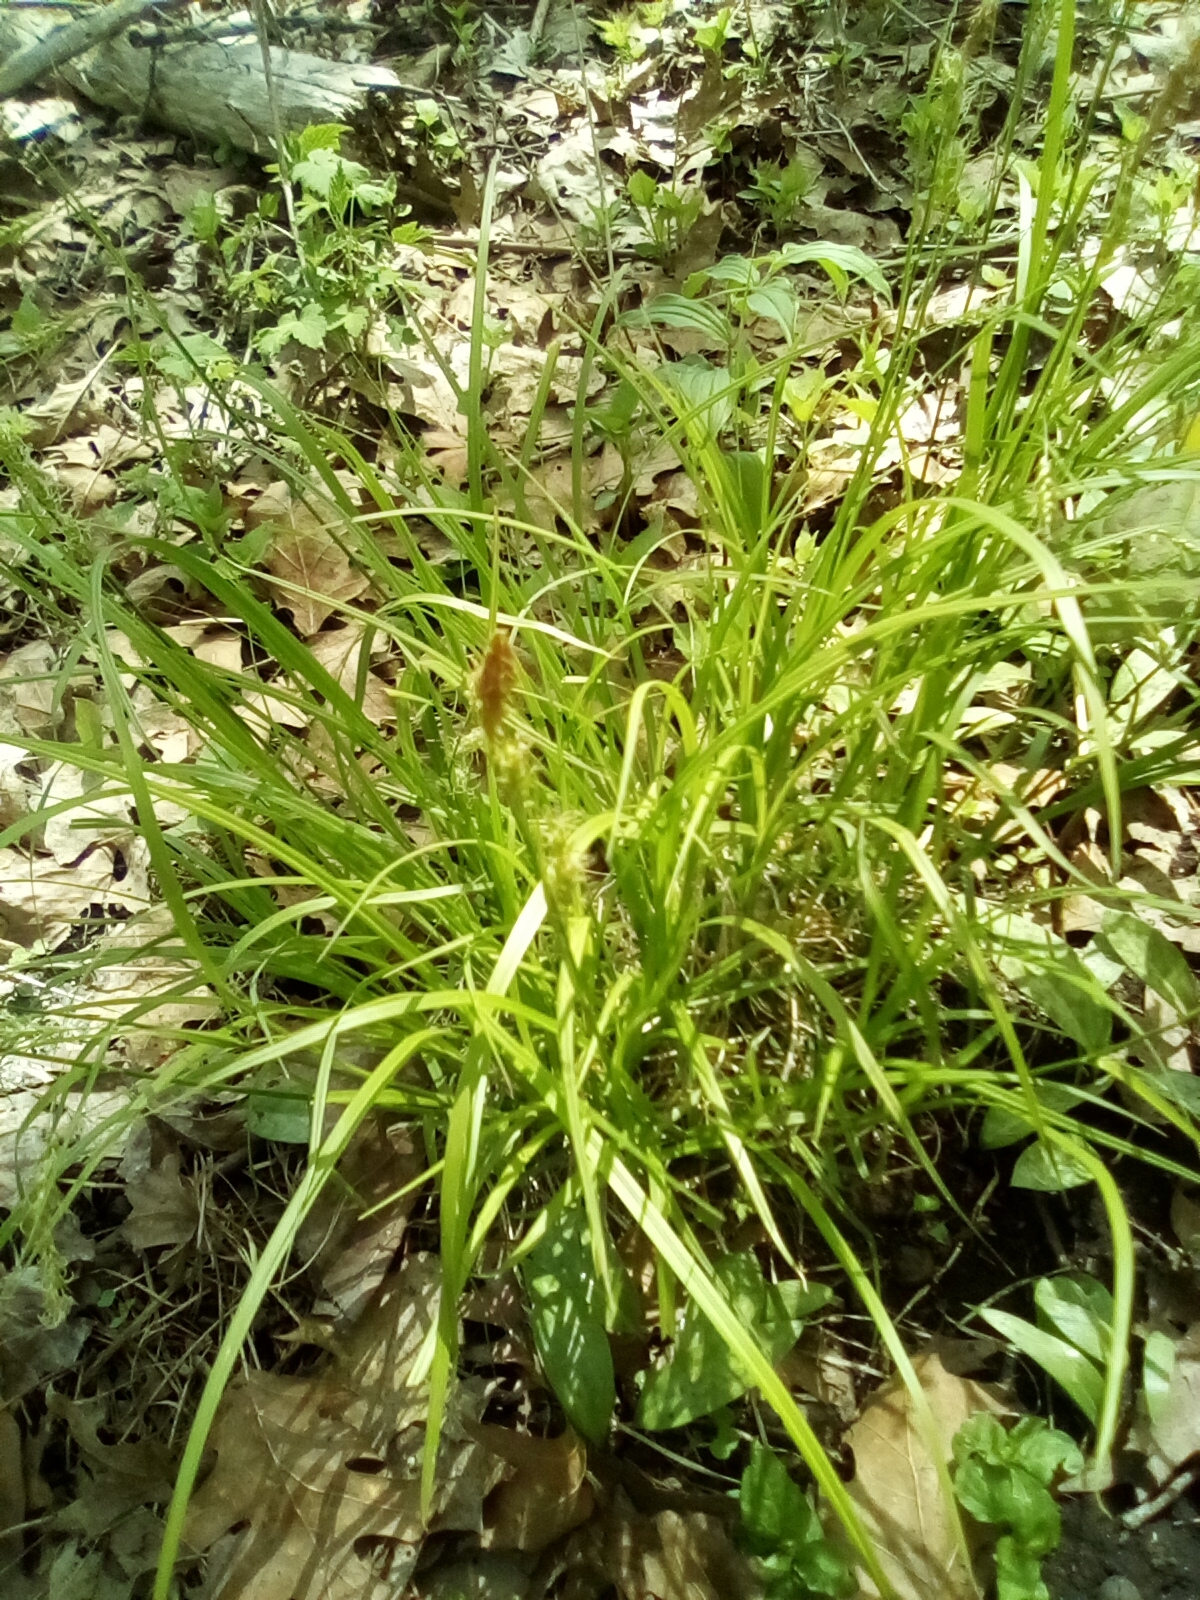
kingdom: Plantae
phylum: Tracheophyta
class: Liliopsida
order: Poales
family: Cyperaceae
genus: Carex
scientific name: Carex sprengelii
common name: Long-beaked sedge
